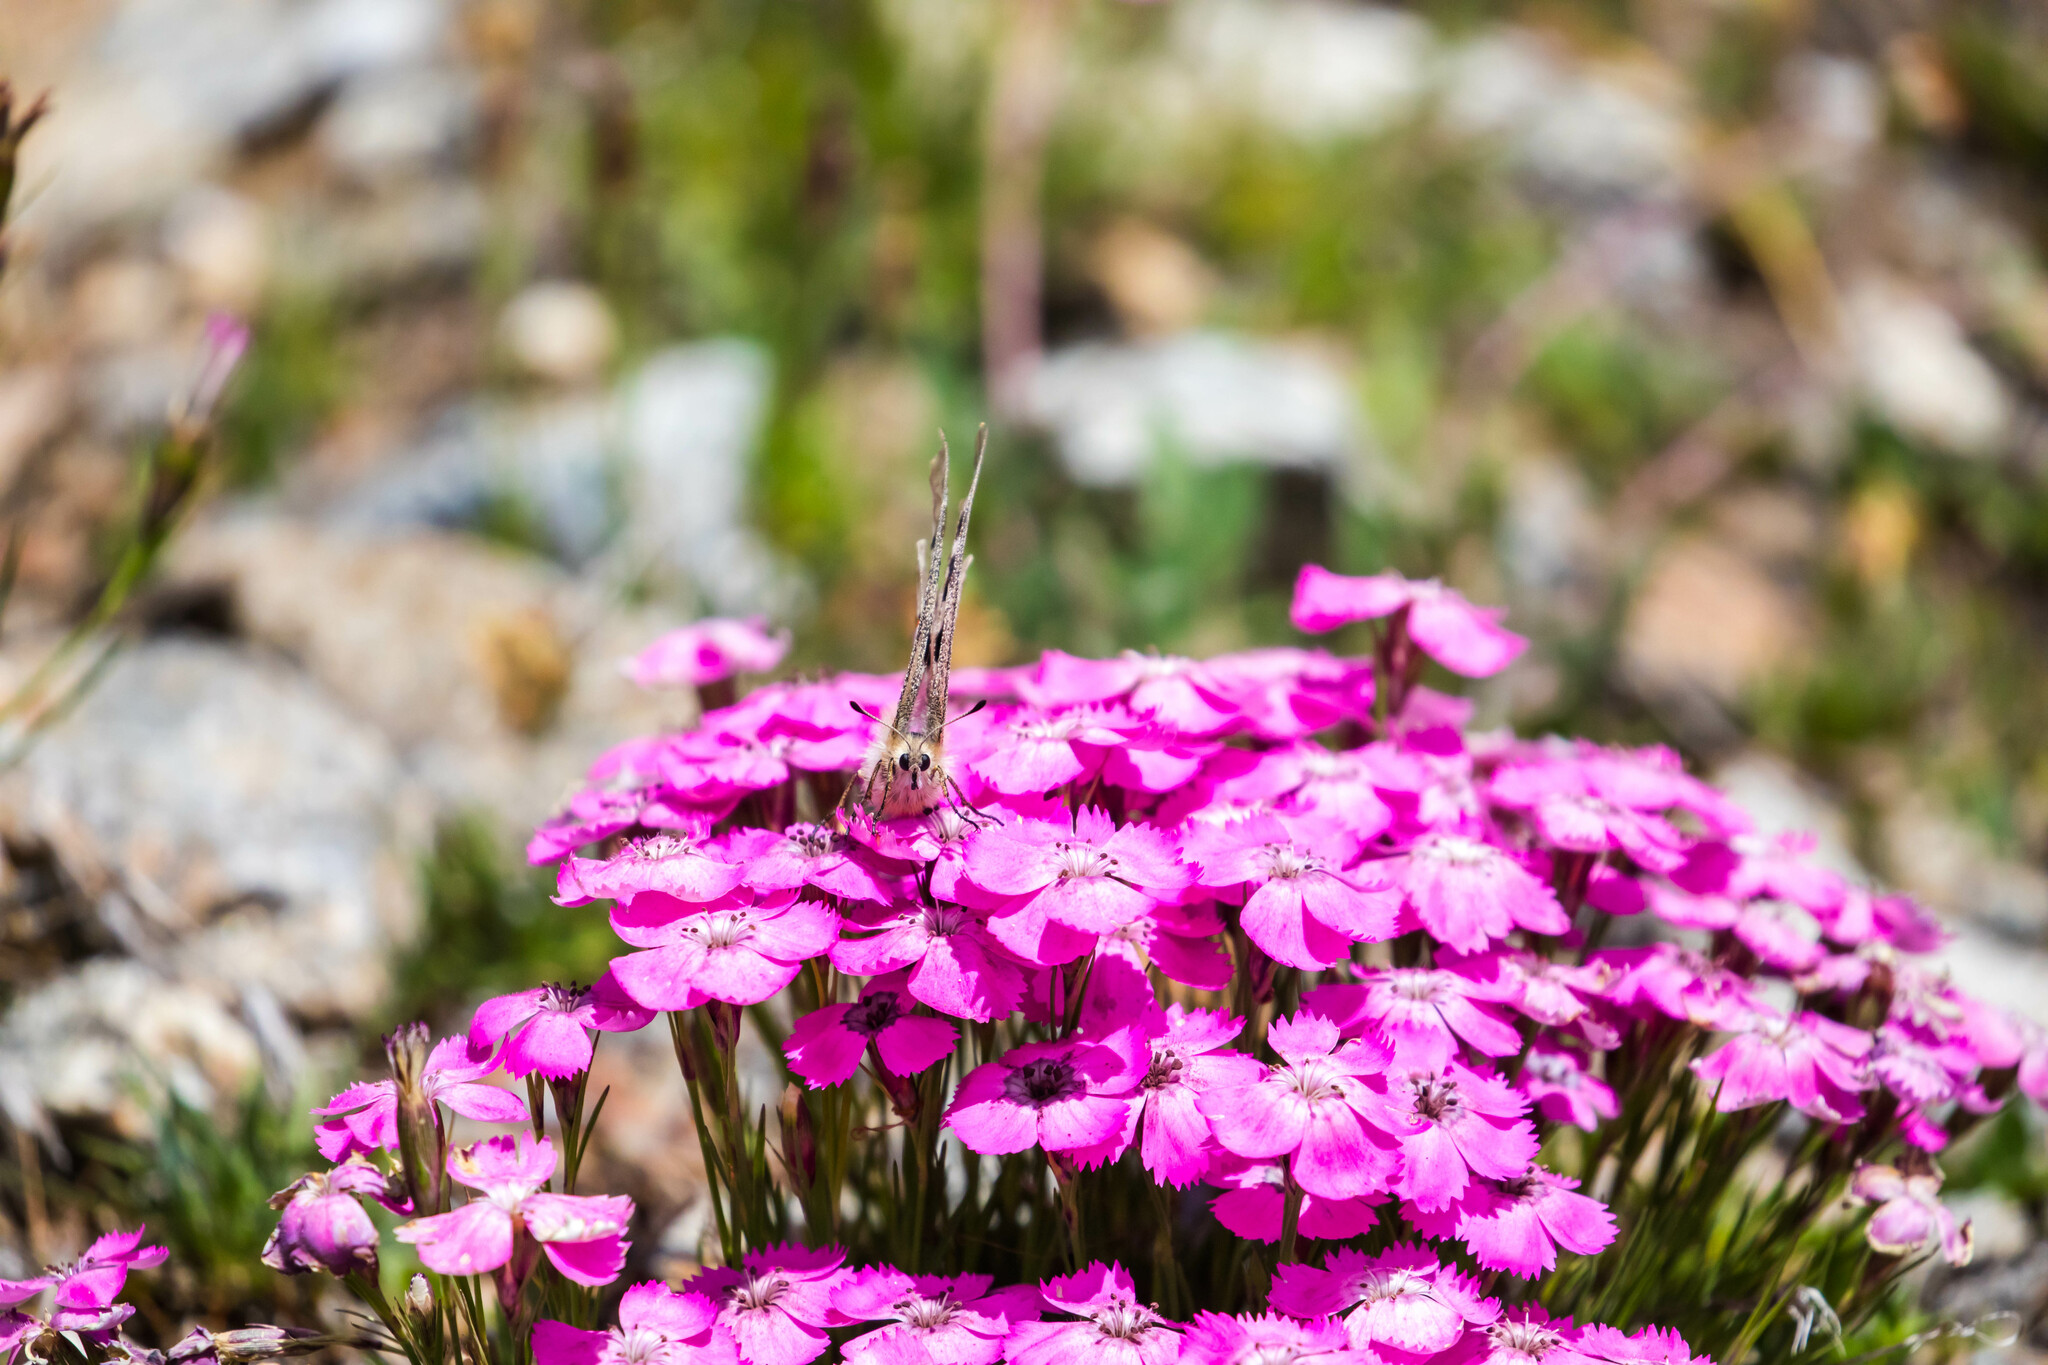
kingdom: Animalia
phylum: Arthropoda
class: Insecta
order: Lepidoptera
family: Papilionidae
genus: Parnassius
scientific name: Parnassius apollo
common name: Apollo
